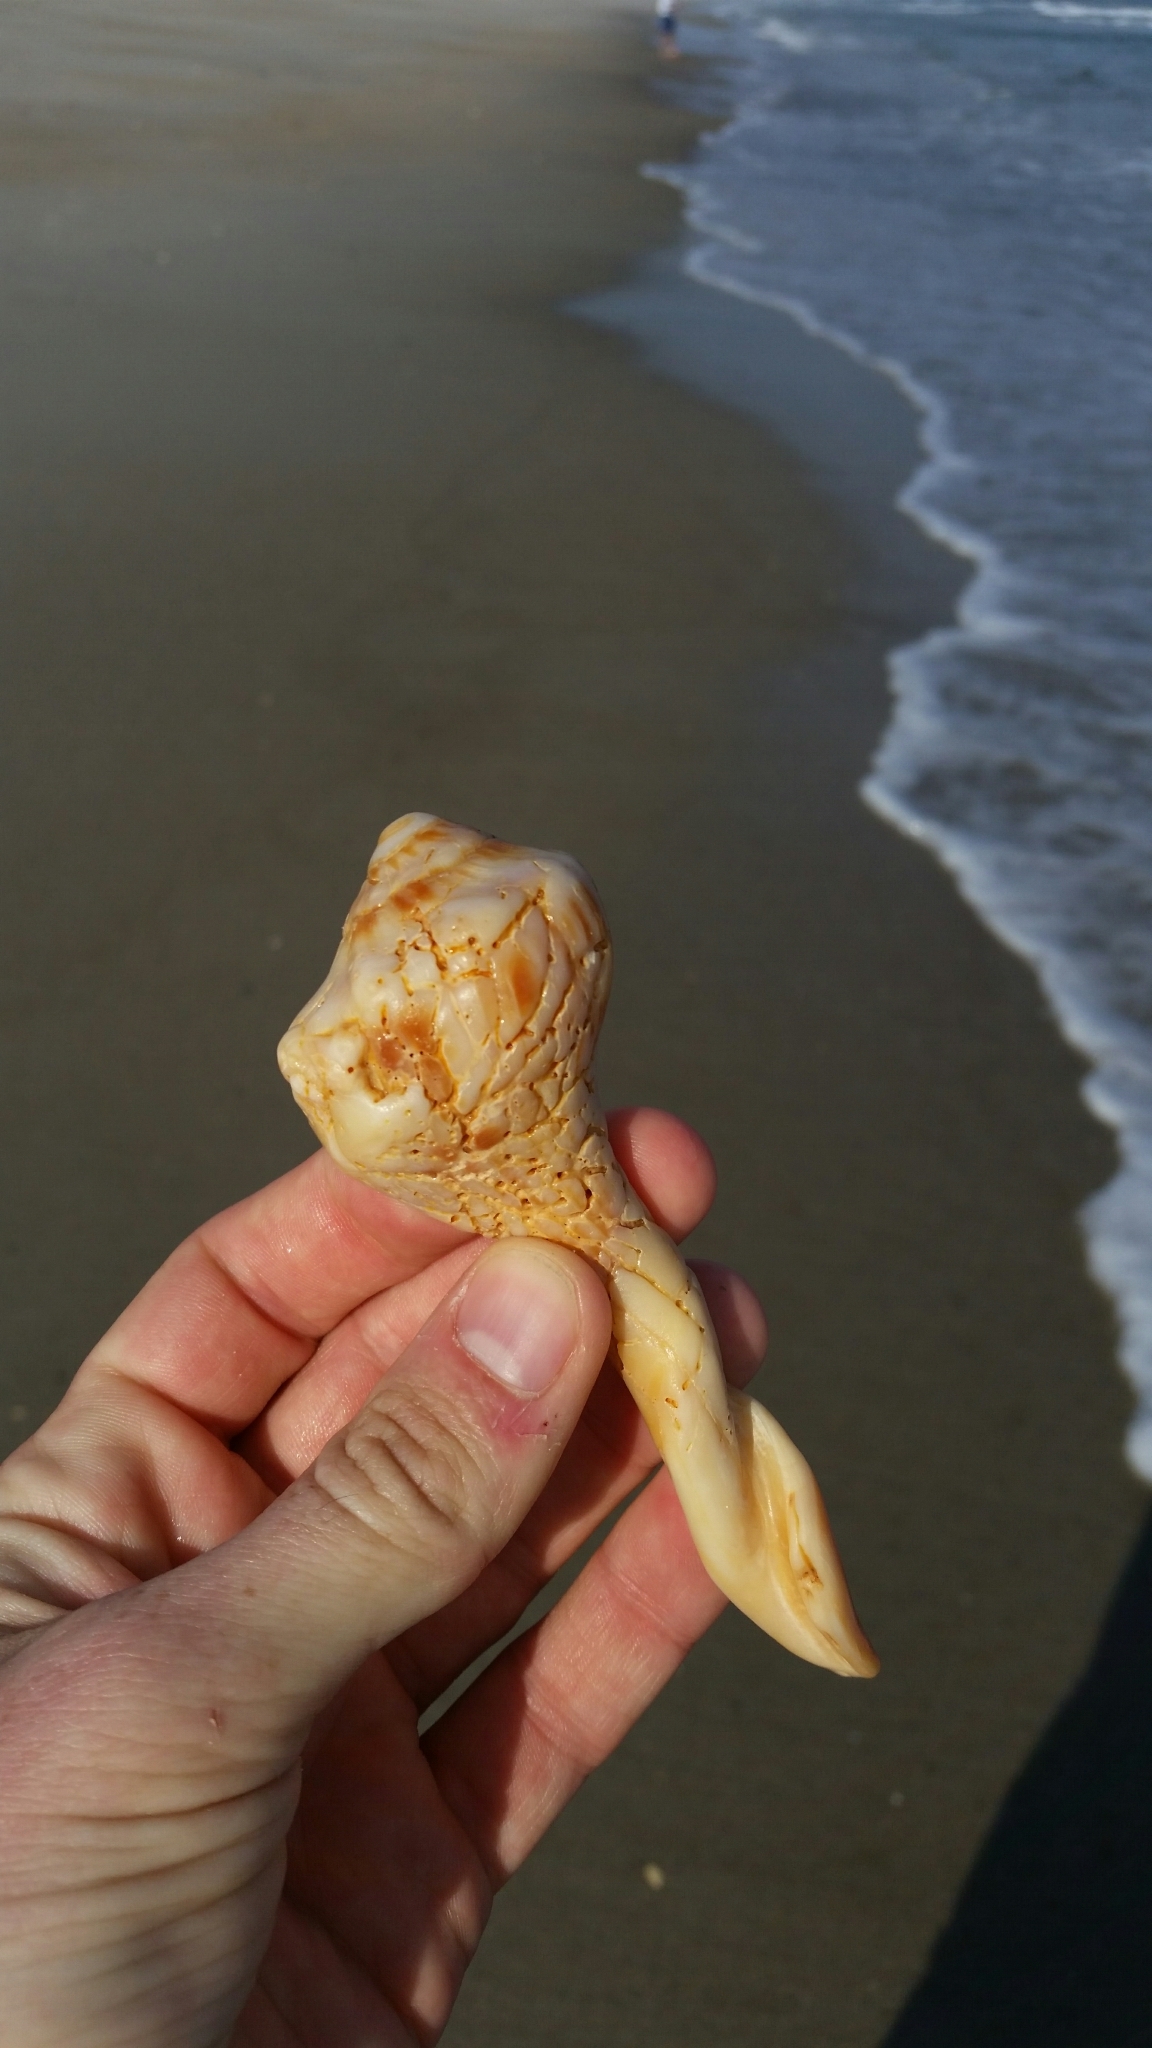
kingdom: Animalia
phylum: Mollusca
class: Gastropoda
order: Neogastropoda
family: Busyconidae
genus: Busycon
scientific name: Busycon carica
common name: Knobbed whelk
